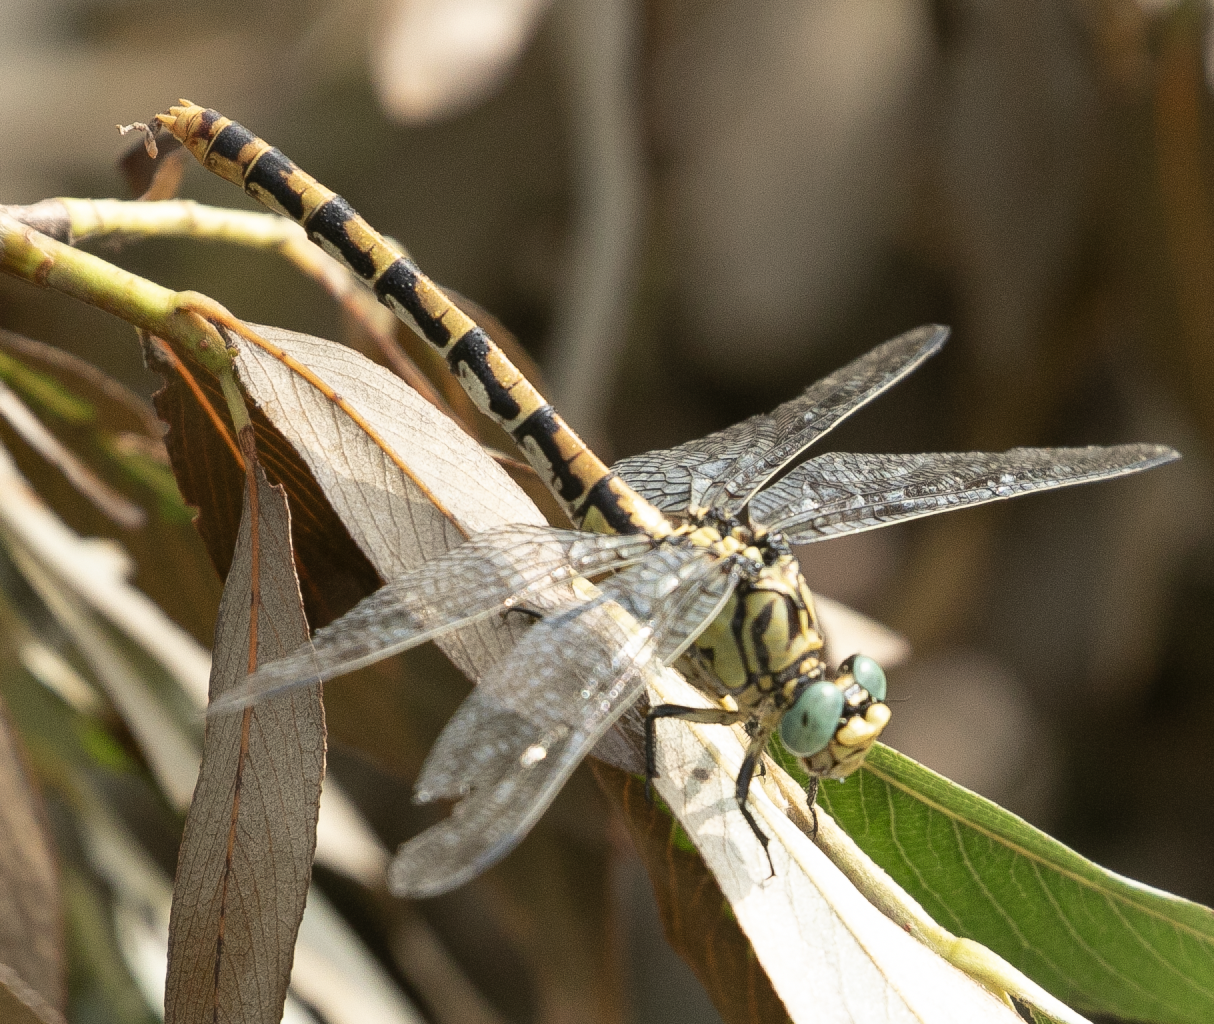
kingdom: Animalia
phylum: Arthropoda
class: Insecta
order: Odonata
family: Gomphidae
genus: Onychogomphus
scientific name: Onychogomphus forcipatus
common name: Small pincertail
